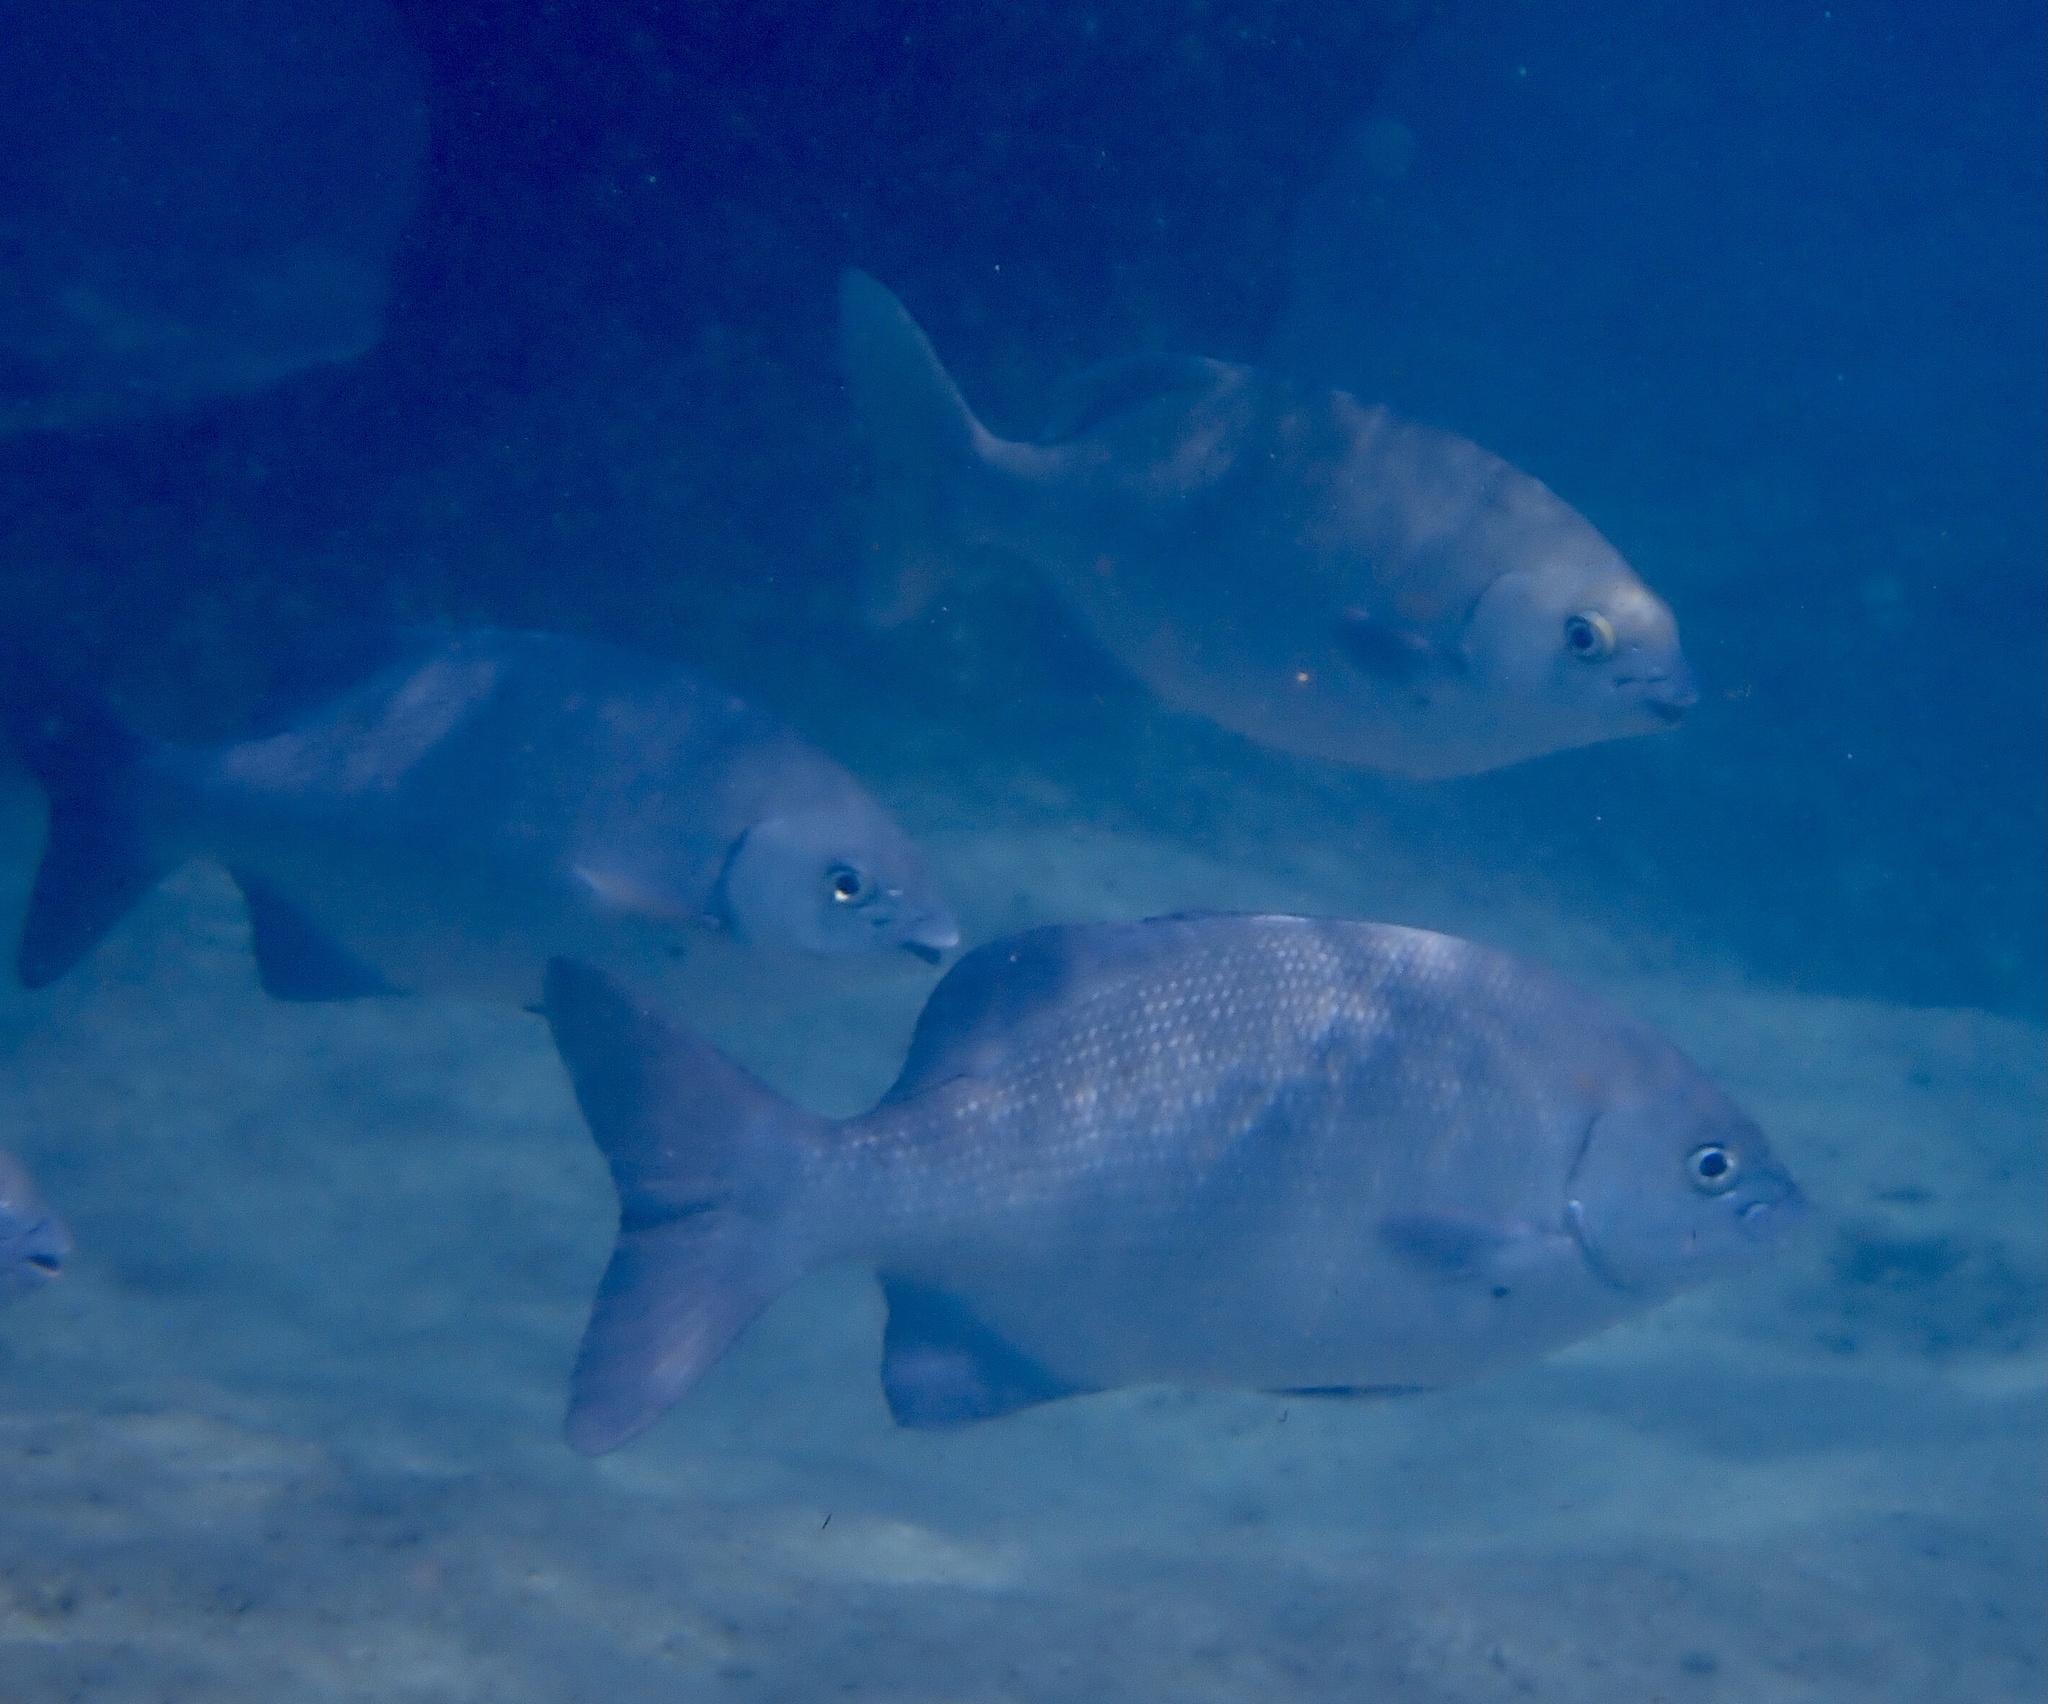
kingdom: Animalia
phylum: Chordata
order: Perciformes
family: Kyphosidae
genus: Kyphosus
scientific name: Kyphosus cinerascens
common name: Topsail drummer
